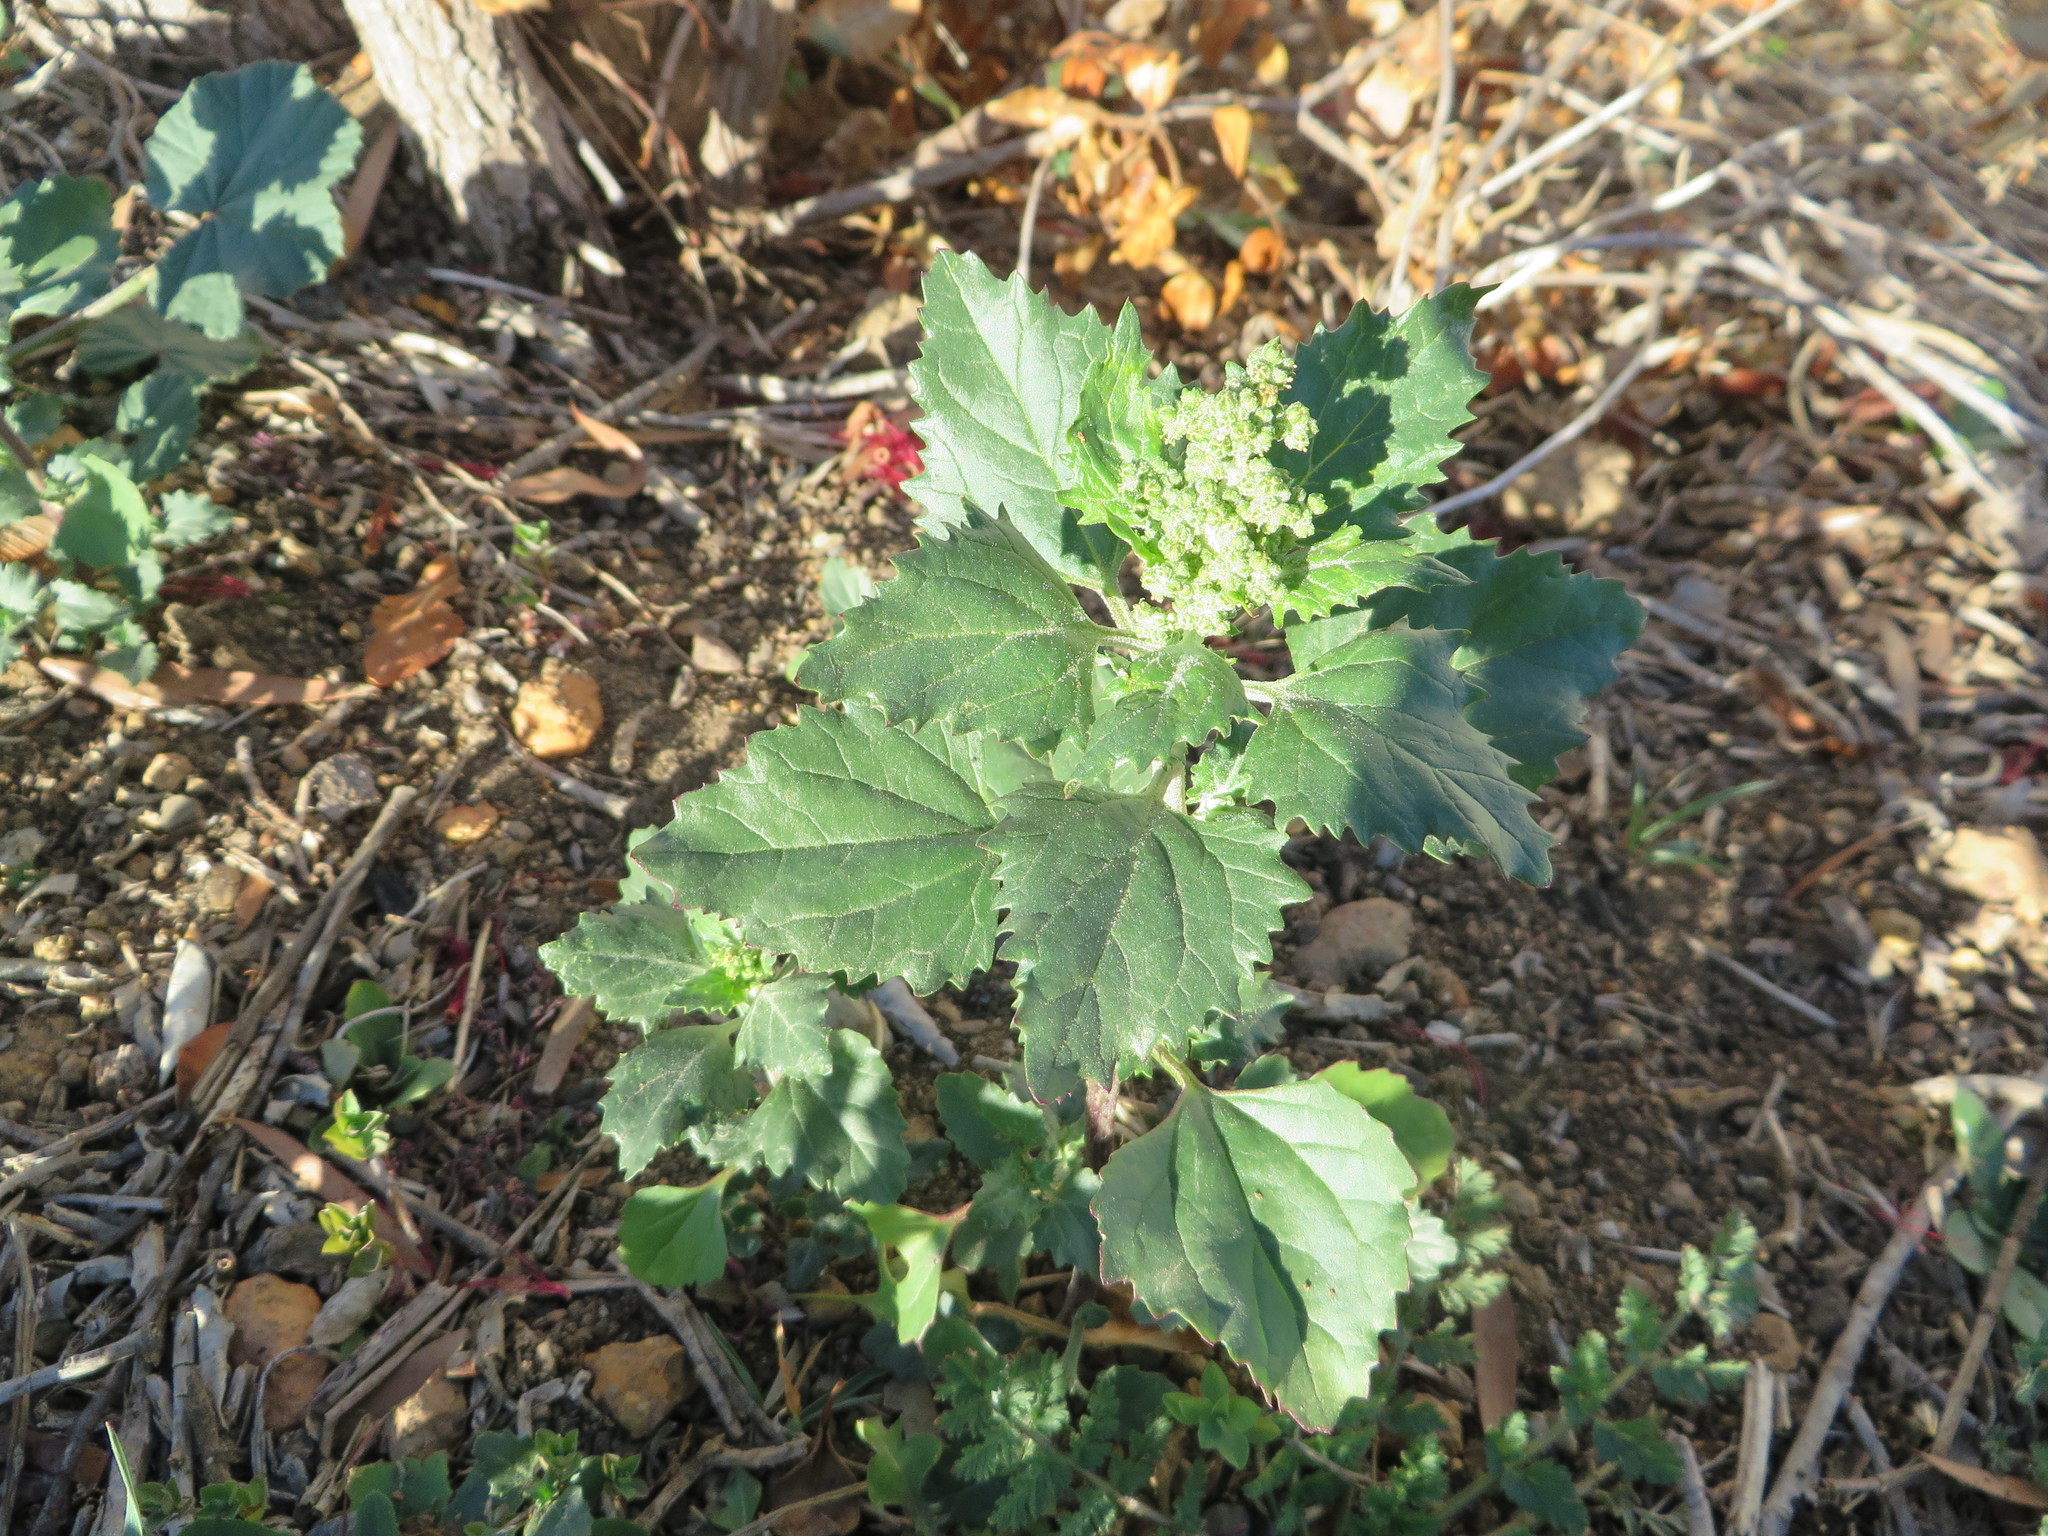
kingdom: Plantae
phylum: Tracheophyta
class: Magnoliopsida
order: Caryophyllales
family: Amaranthaceae
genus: Chenopodiastrum
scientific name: Chenopodiastrum murale
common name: Sowbane
